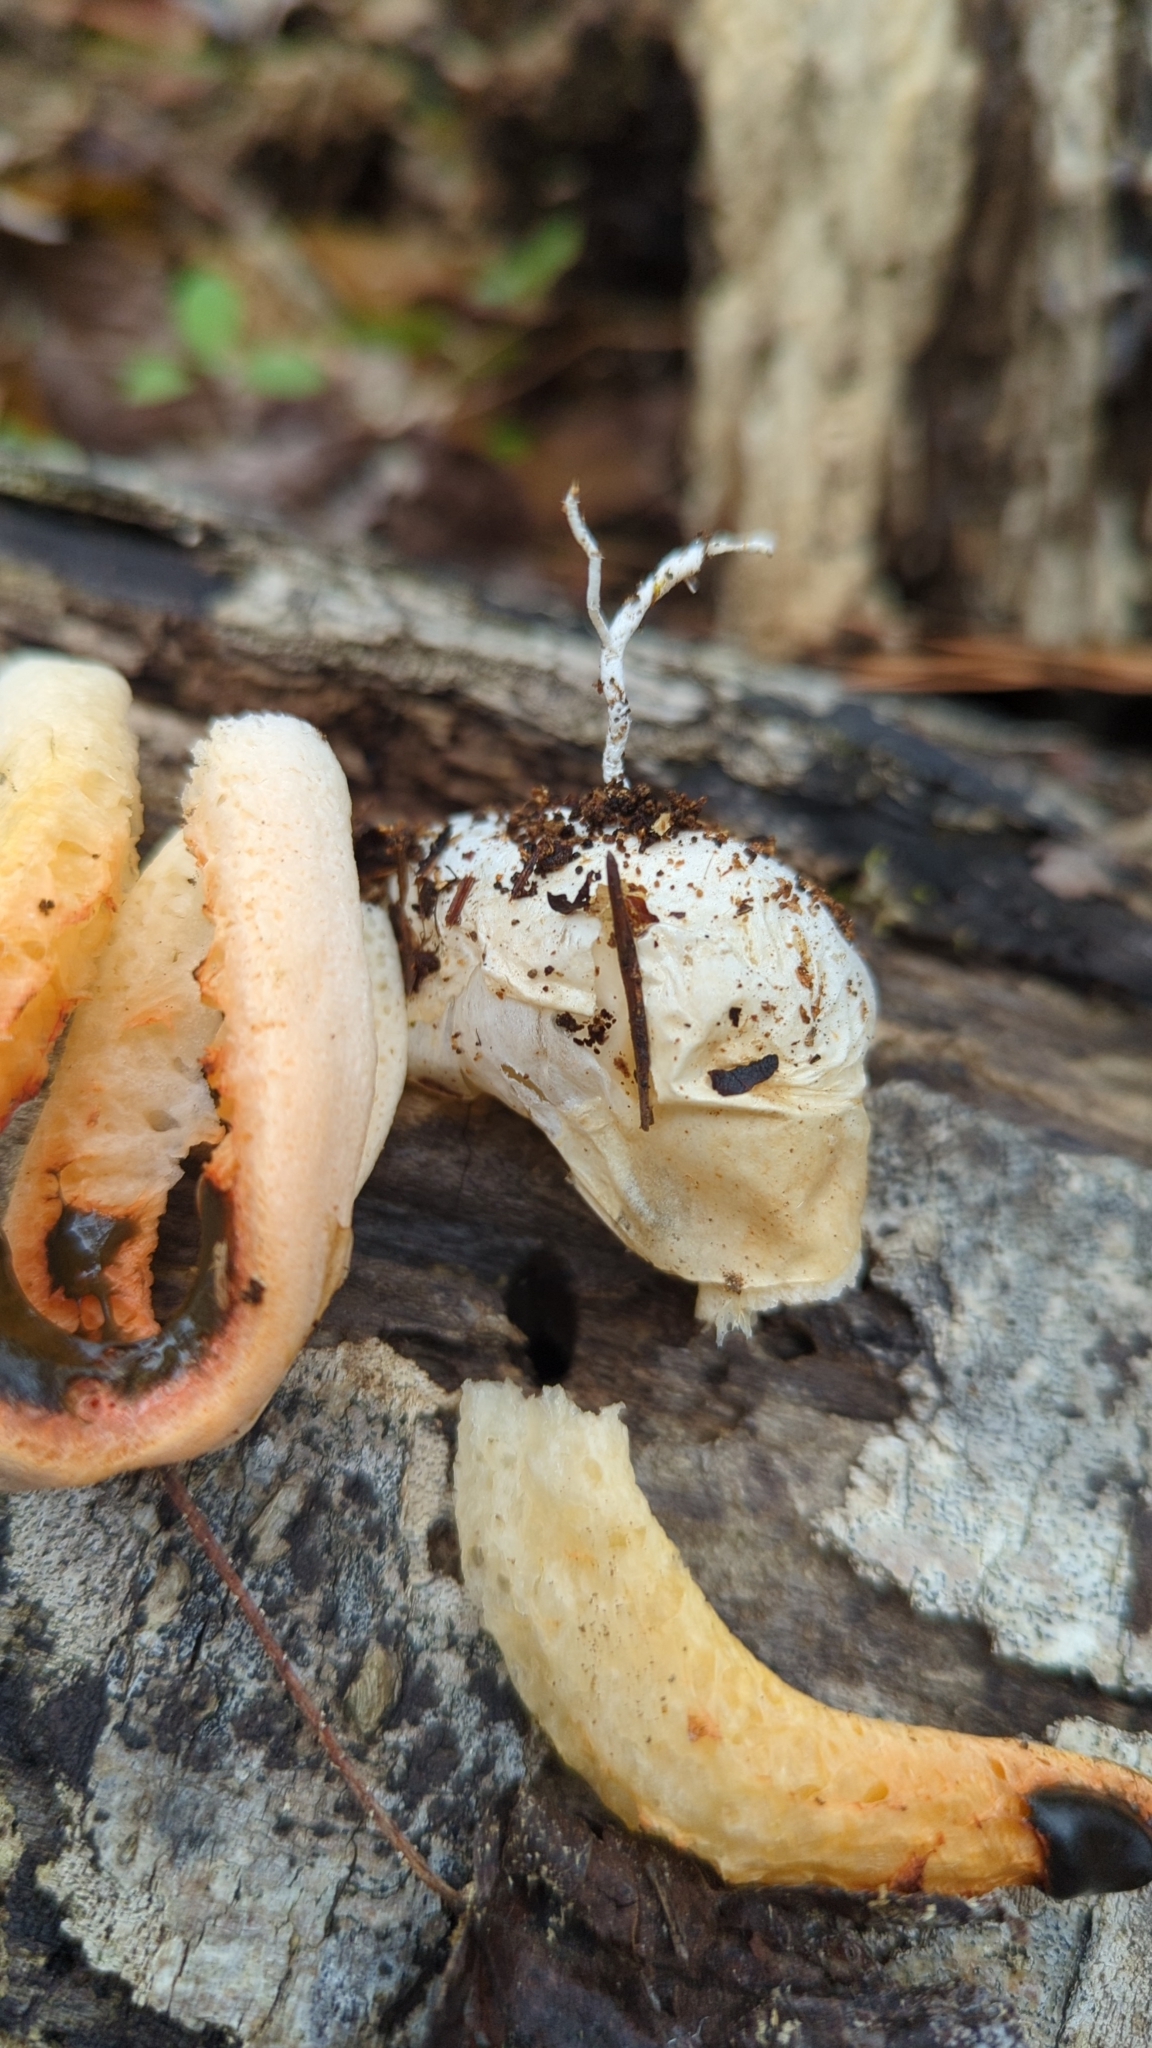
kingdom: Fungi
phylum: Basidiomycota
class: Agaricomycetes
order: Phallales
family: Phallaceae
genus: Clathrus
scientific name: Clathrus columnatus
